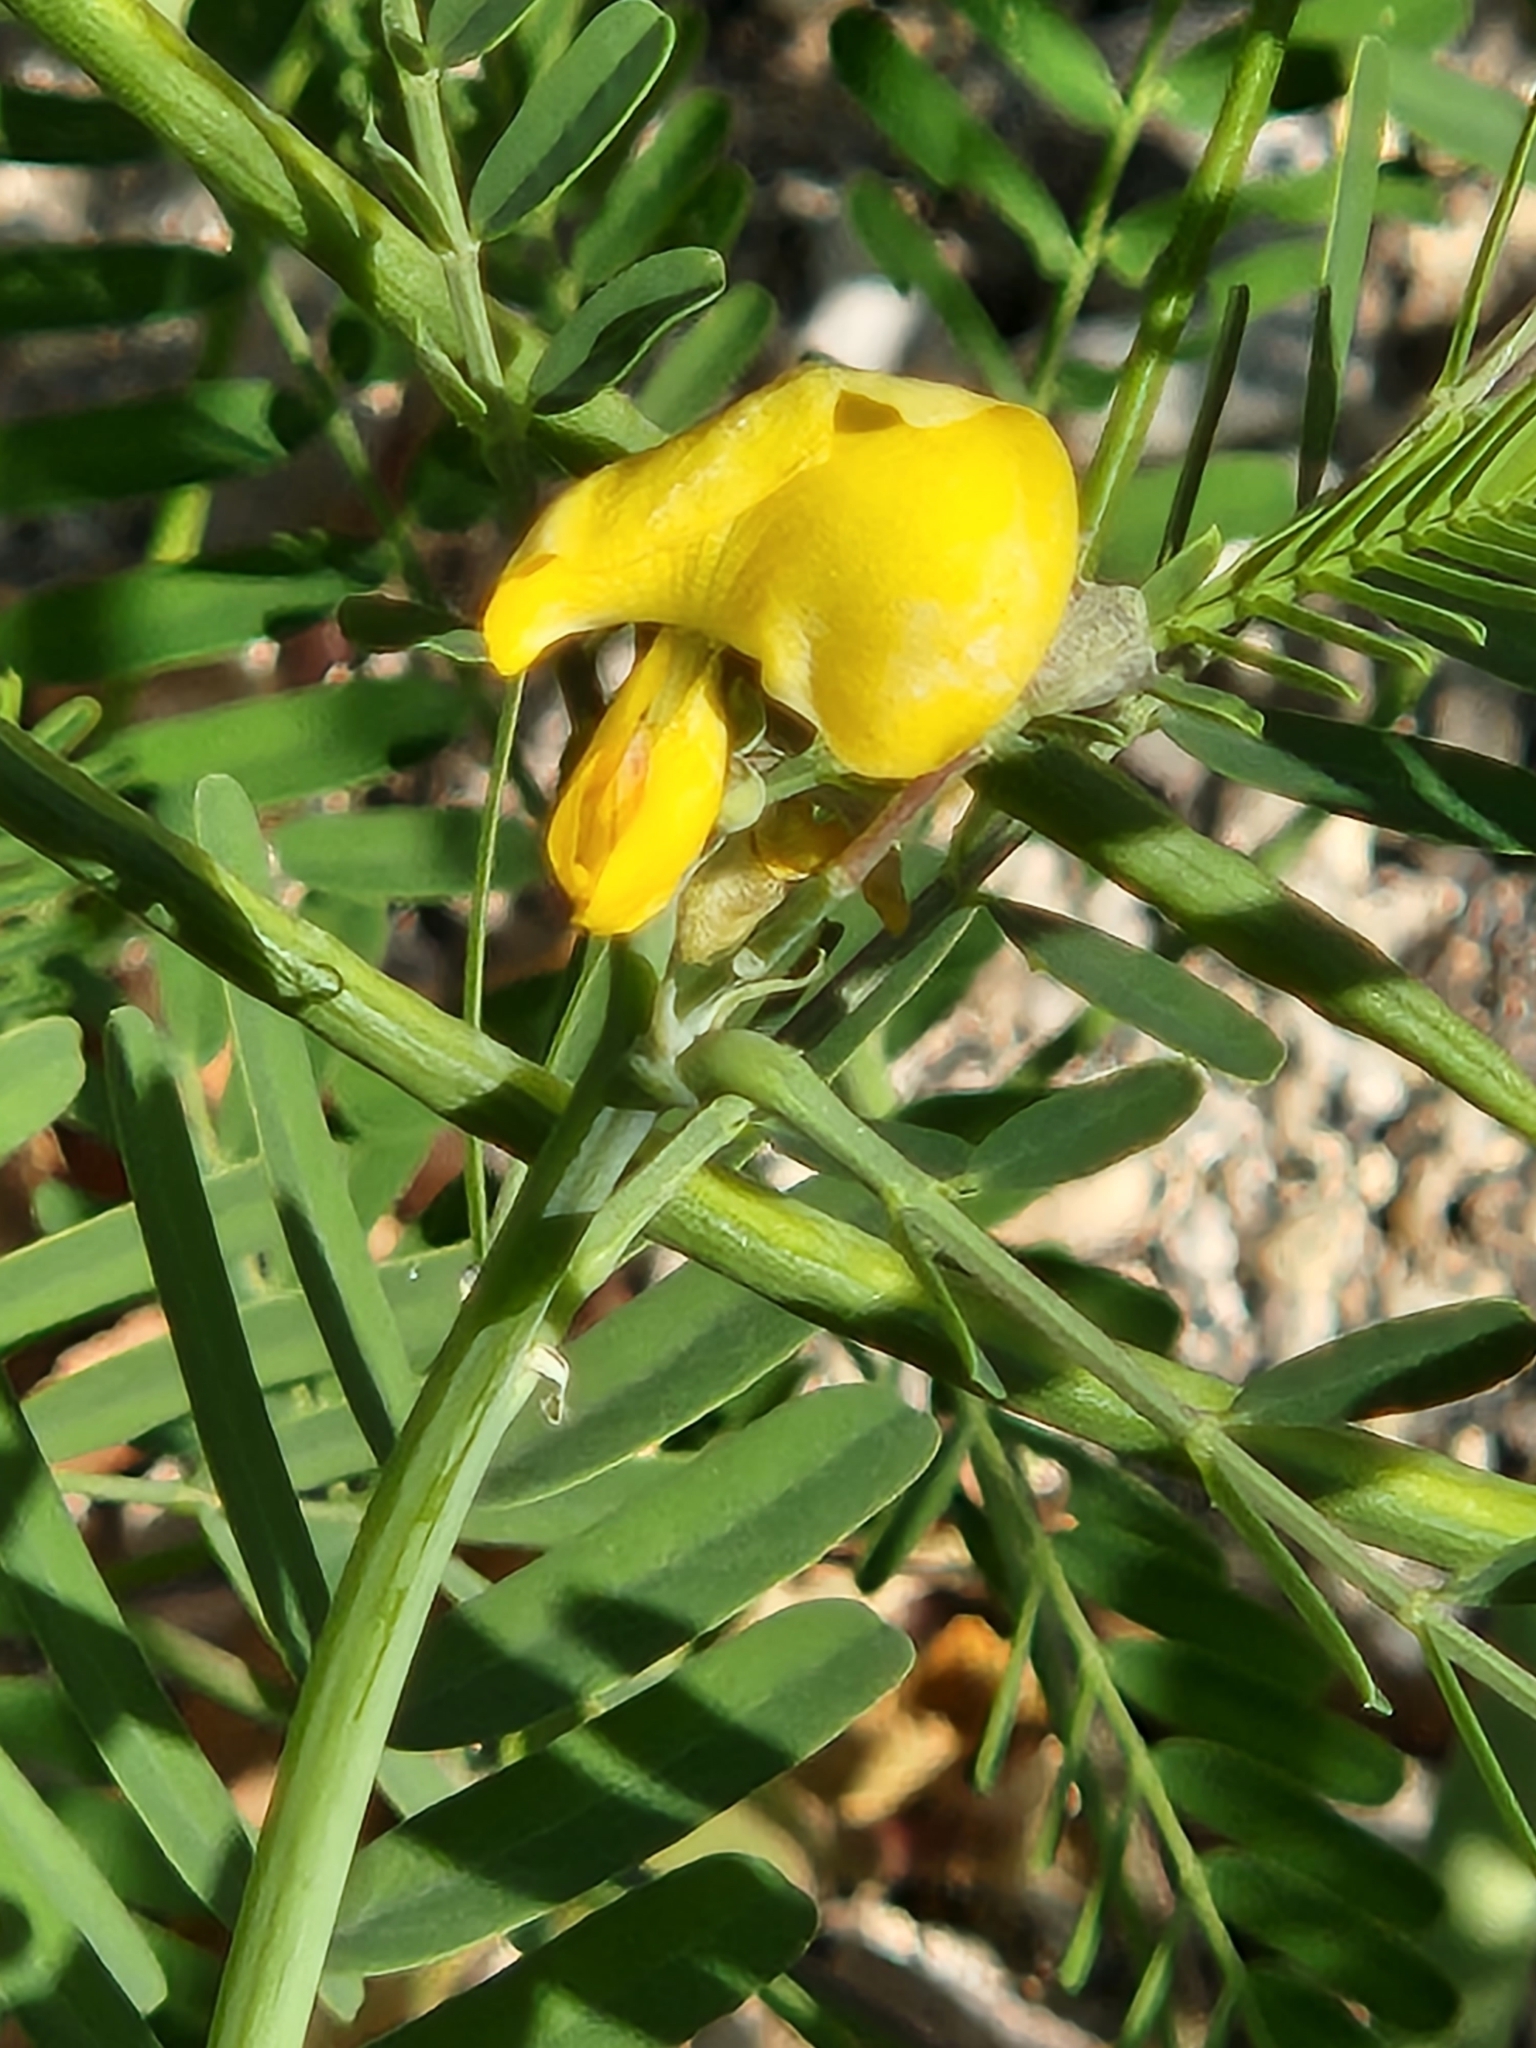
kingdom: Plantae
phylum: Tracheophyta
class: Magnoliopsida
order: Fabales
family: Fabaceae
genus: Sesbania
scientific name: Sesbania herbacea
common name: Bigpod sesbania
